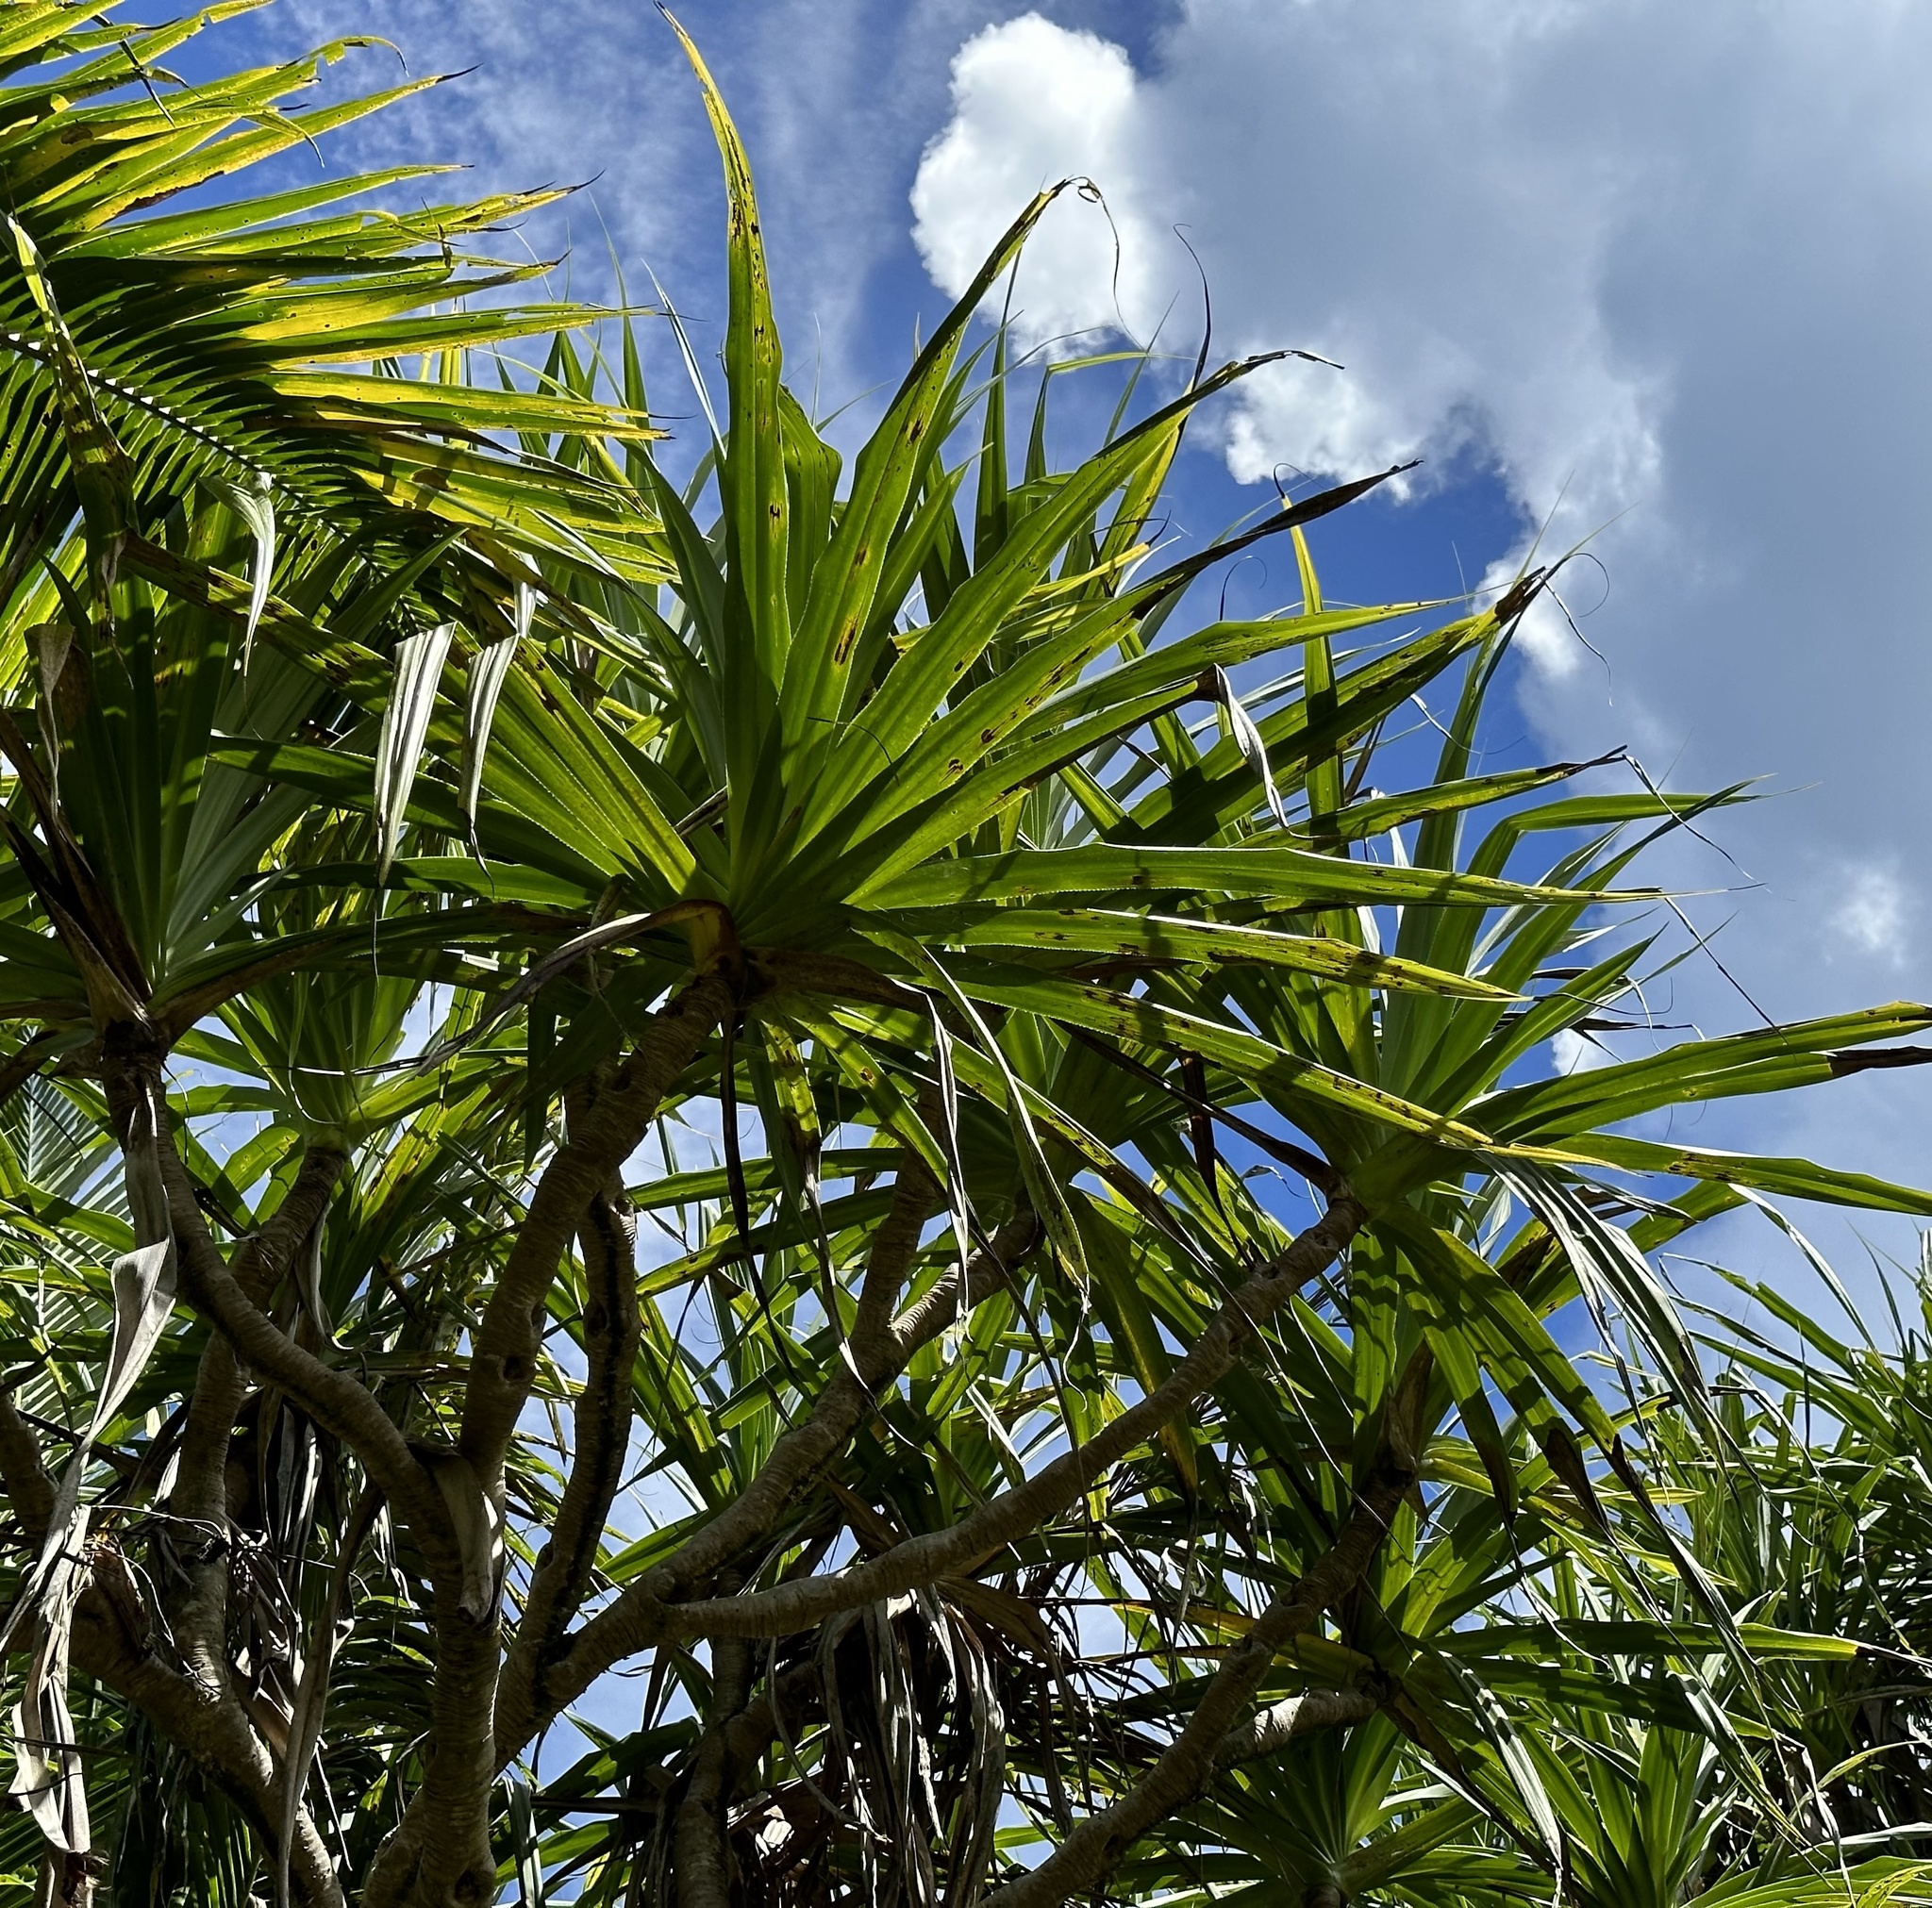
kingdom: Plantae
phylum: Tracheophyta
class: Liliopsida
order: Pandanales
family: Pandanaceae
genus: Pandanus
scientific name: Pandanus tectorius
